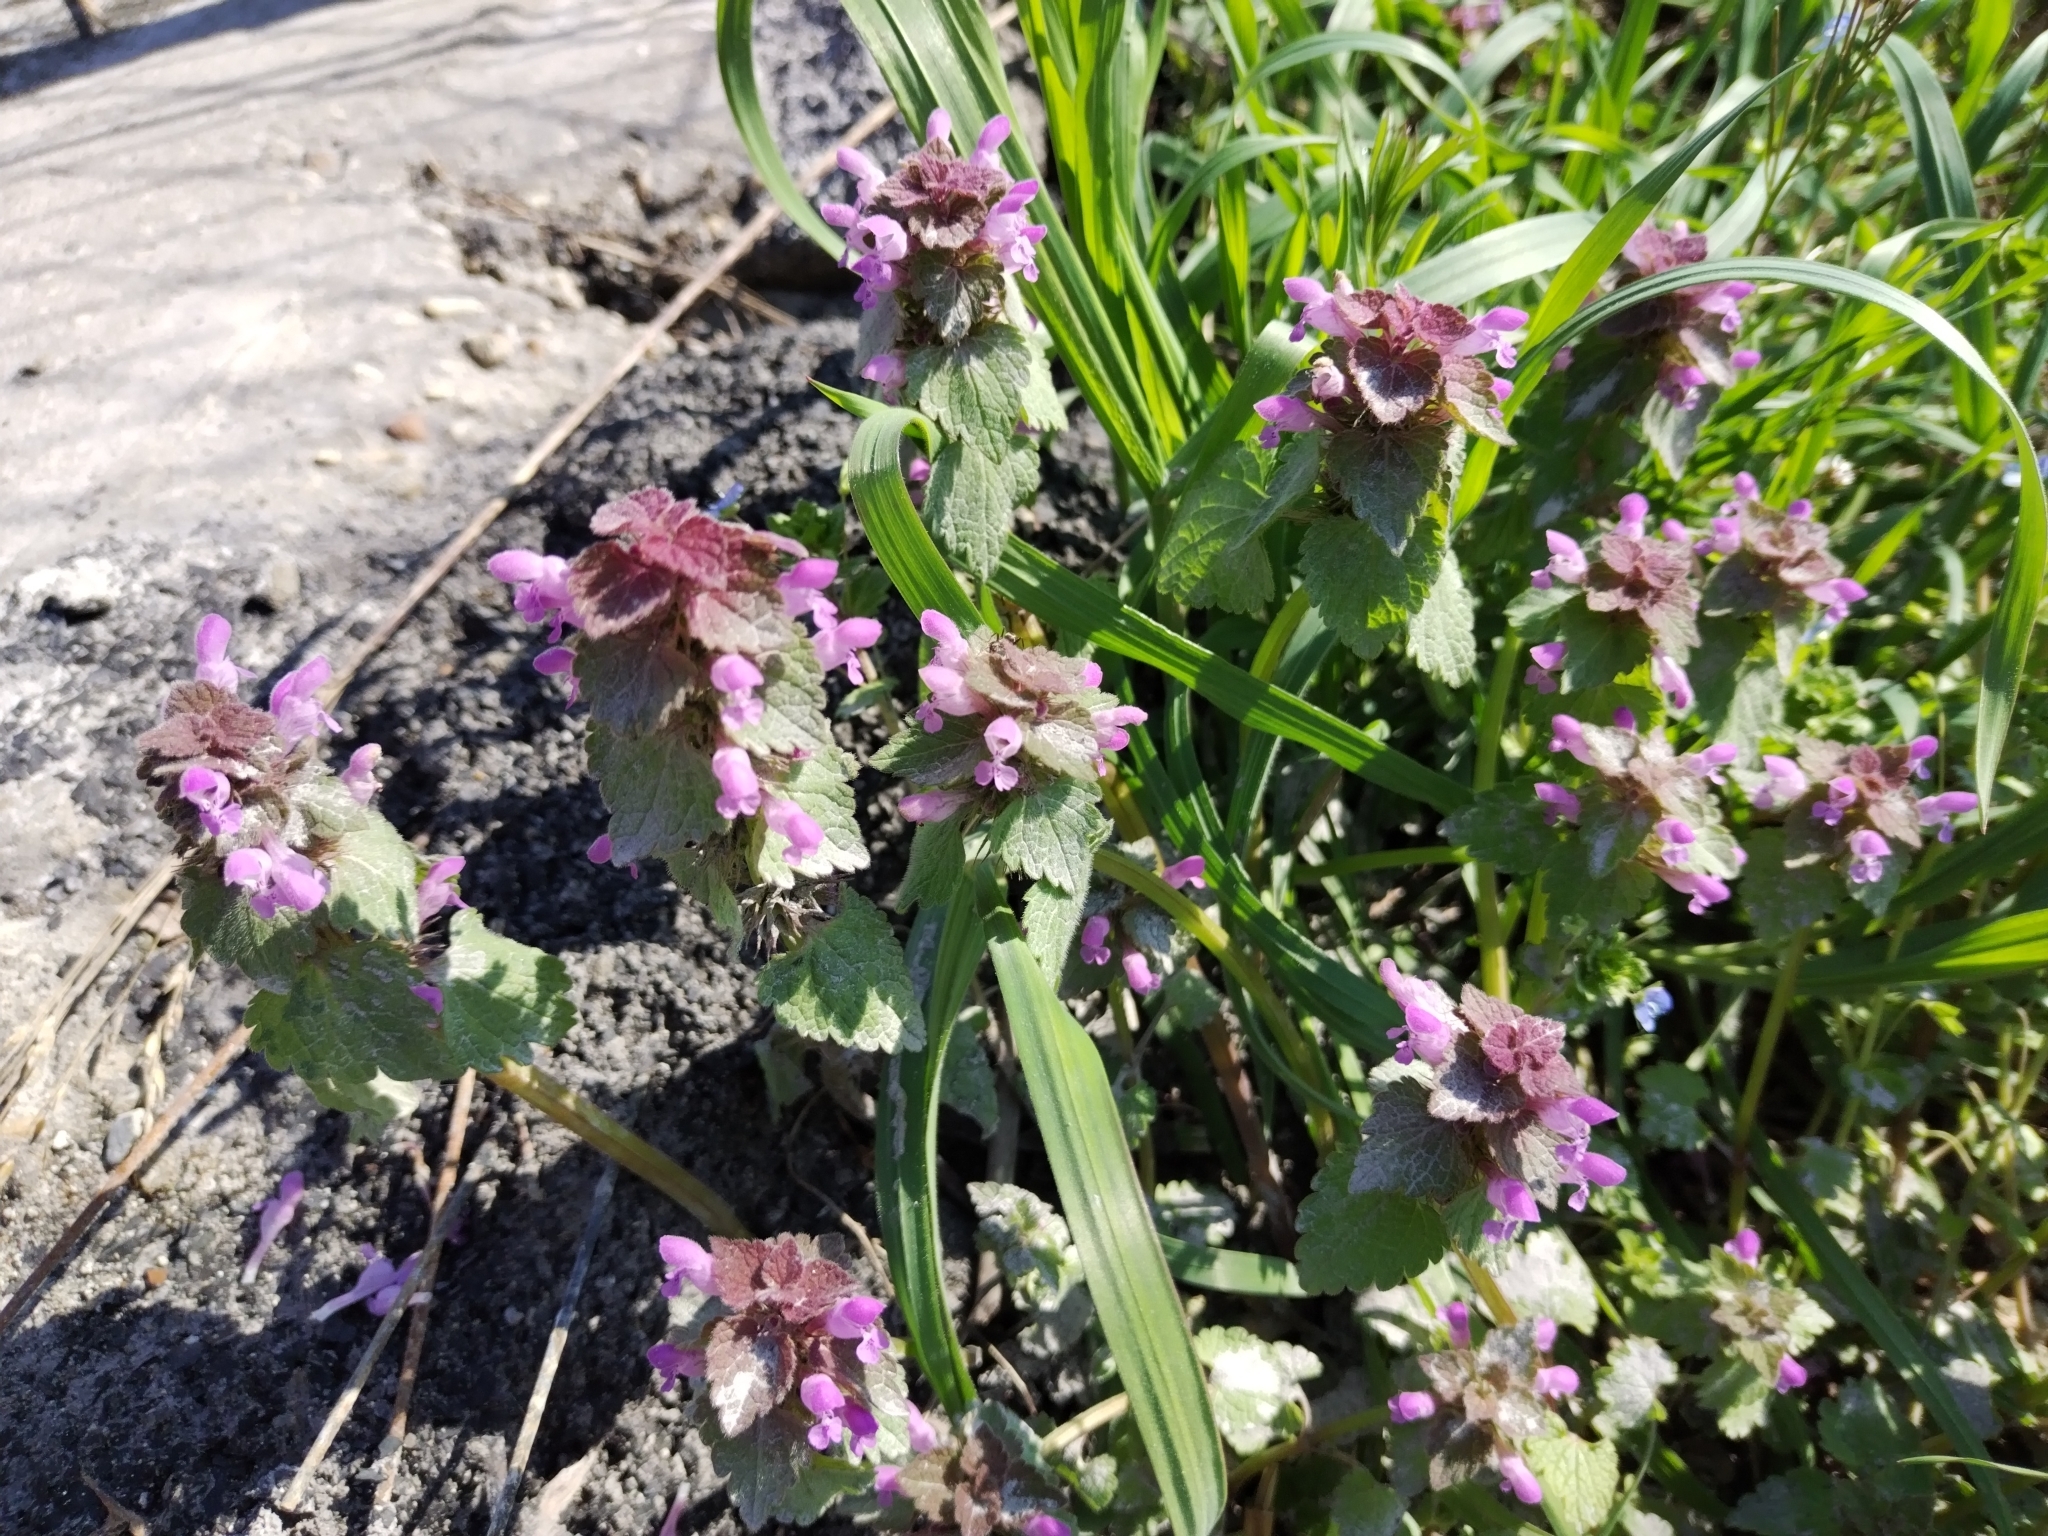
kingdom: Plantae
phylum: Tracheophyta
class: Magnoliopsida
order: Lamiales
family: Lamiaceae
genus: Lamium
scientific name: Lamium purpureum
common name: Red dead-nettle
